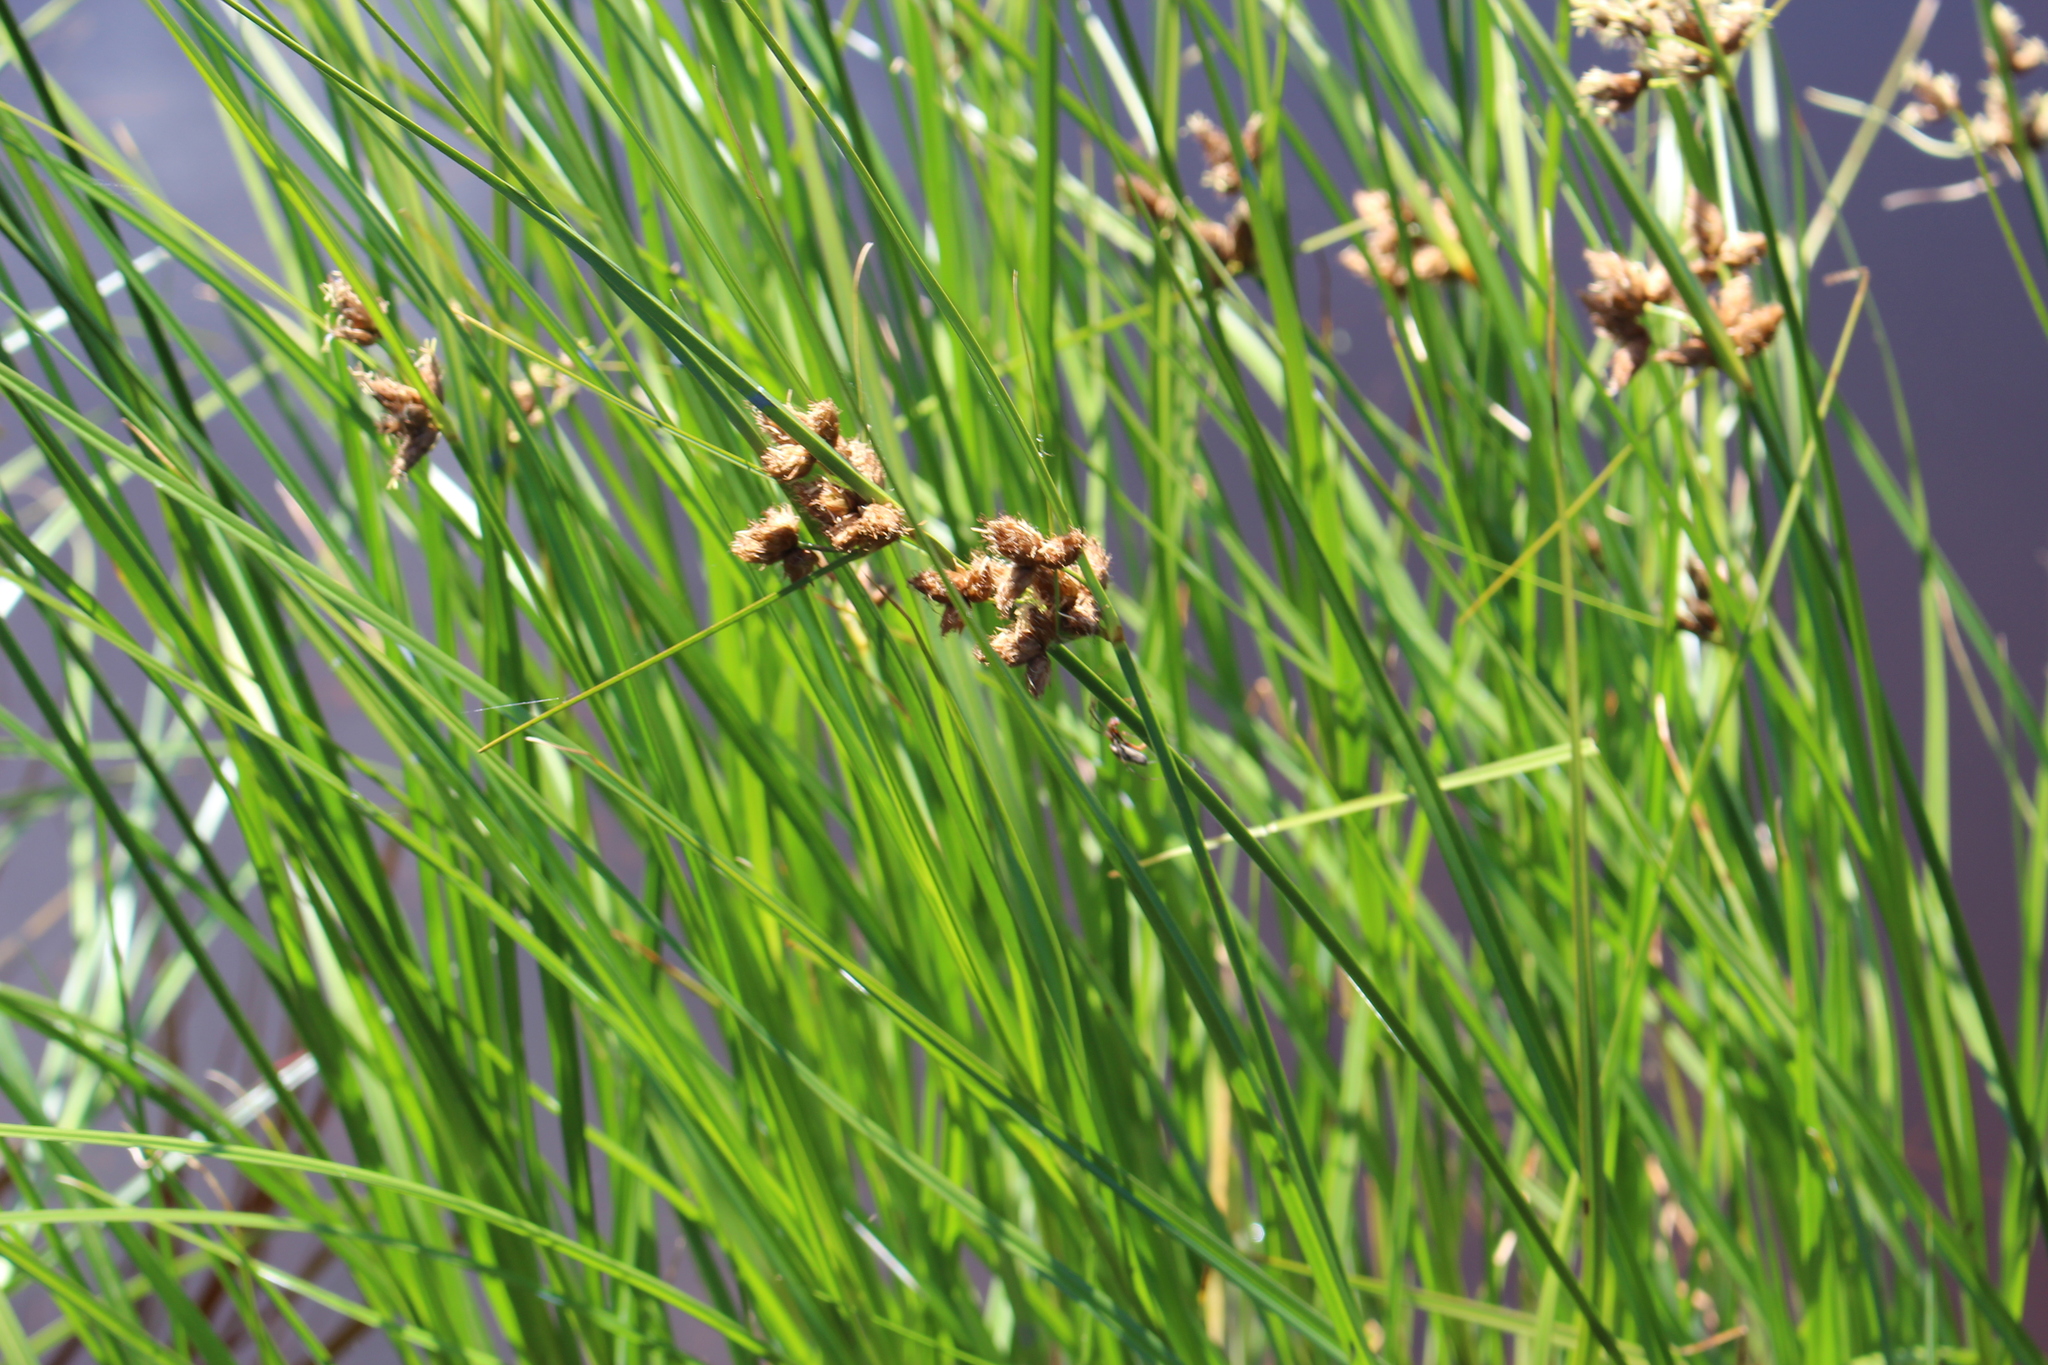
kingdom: Plantae
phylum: Tracheophyta
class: Liliopsida
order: Poales
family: Cyperaceae
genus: Bolboschoenus
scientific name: Bolboschoenus caldwellii
